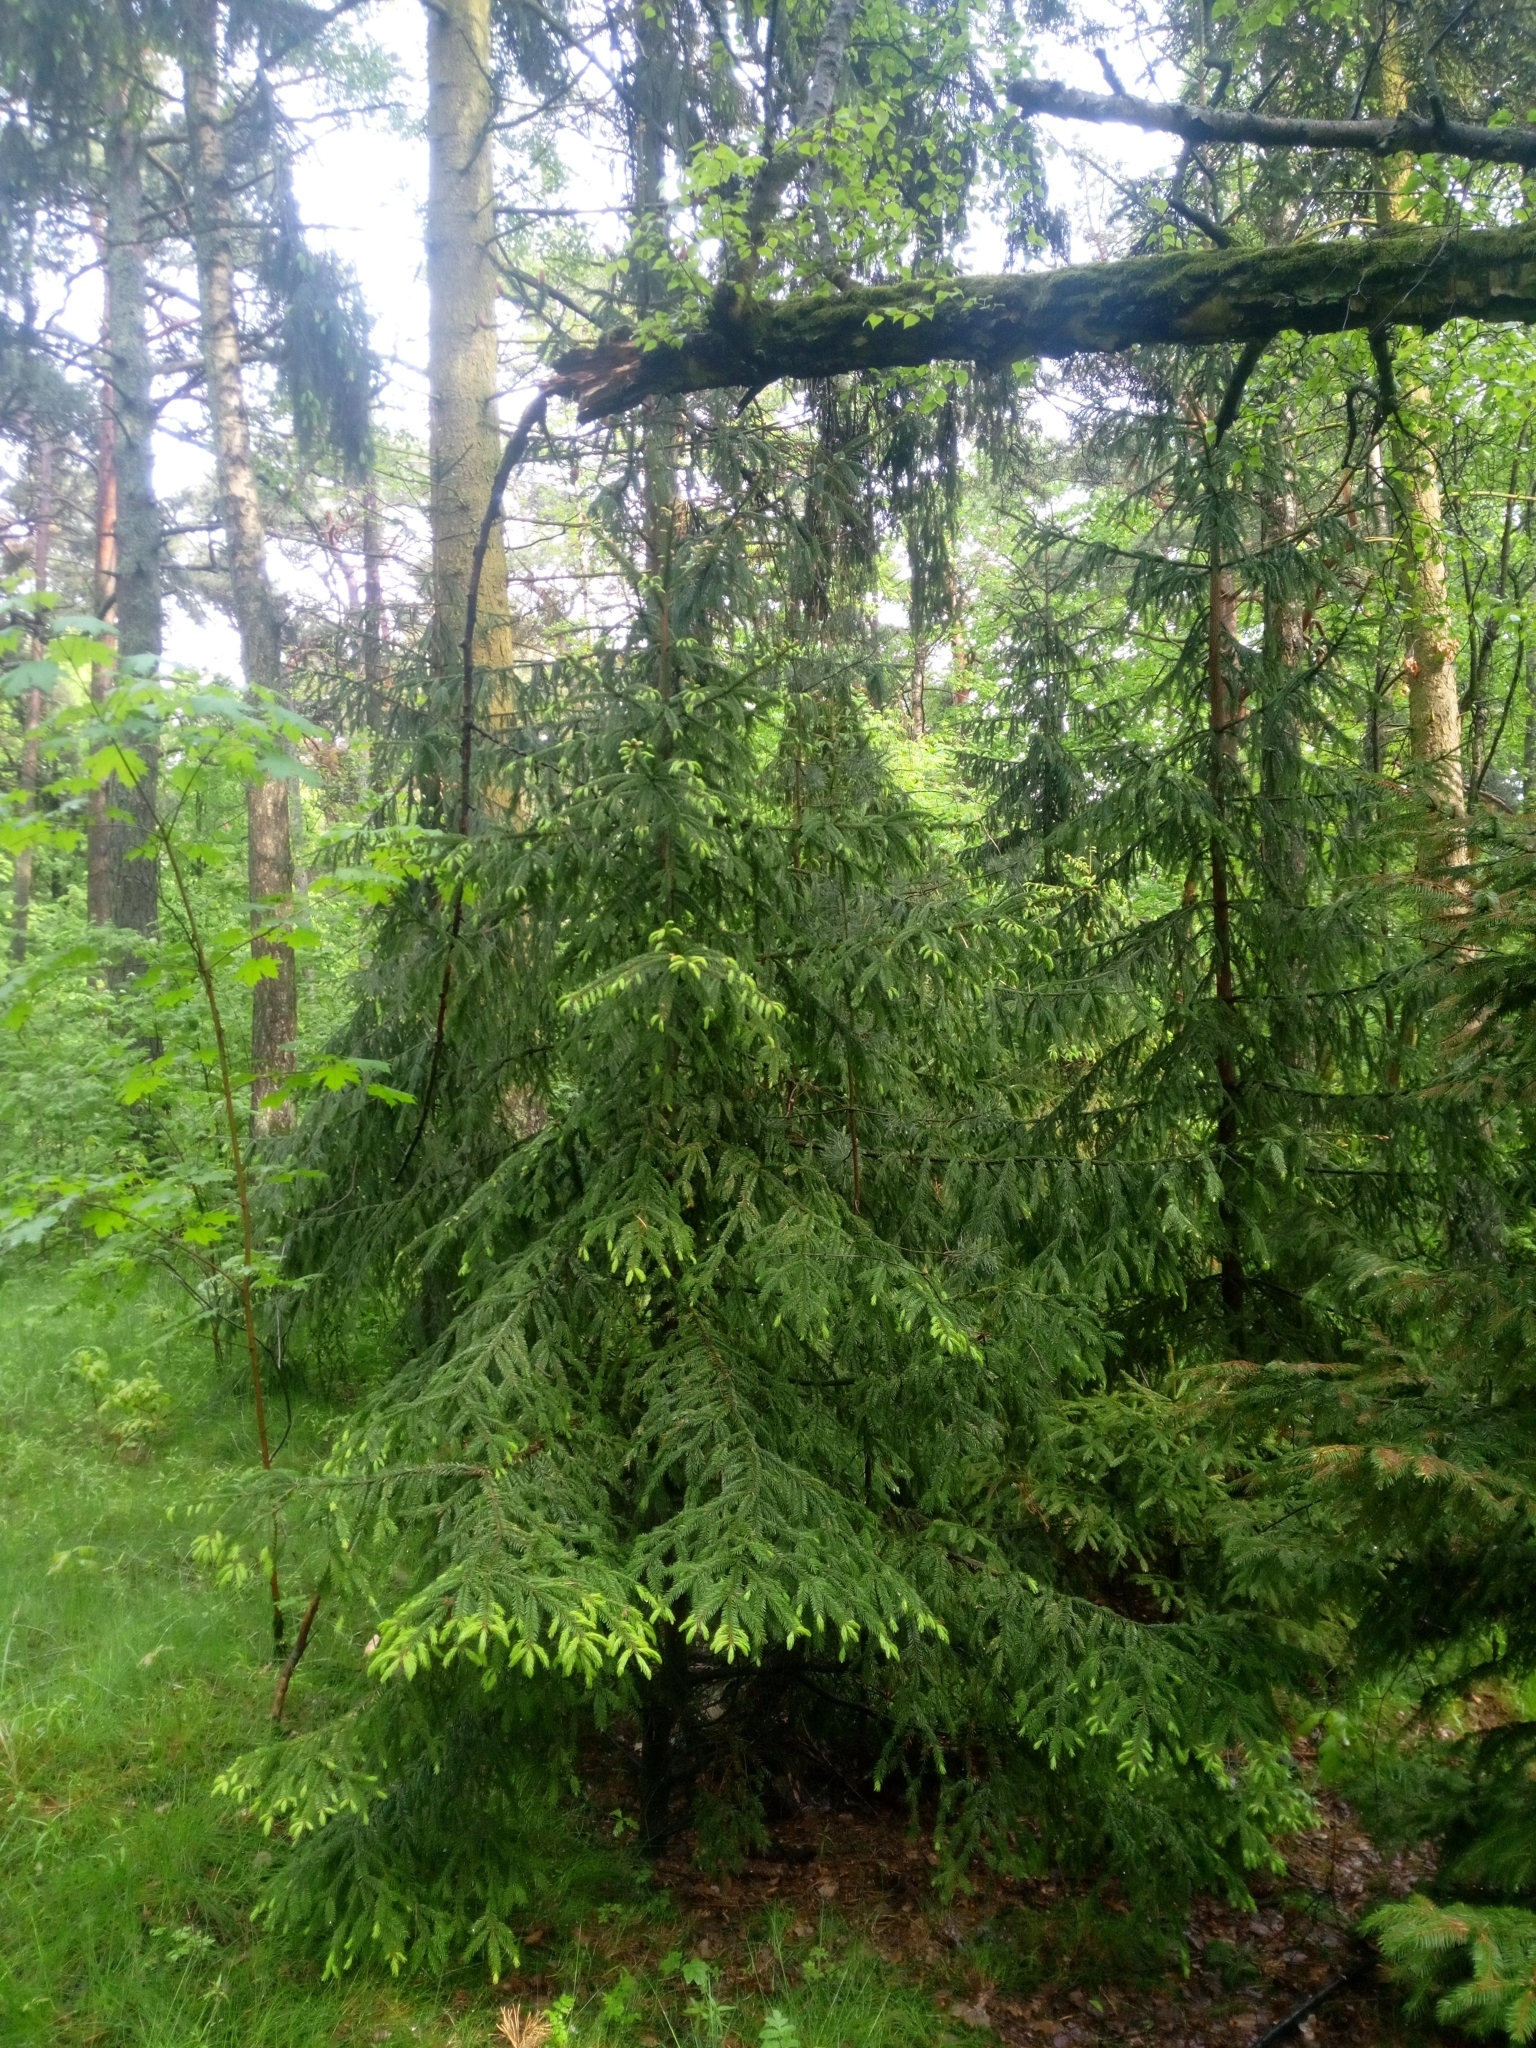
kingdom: Plantae
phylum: Tracheophyta
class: Pinopsida
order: Pinales
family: Pinaceae
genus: Picea
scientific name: Picea abies
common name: Norway spruce
